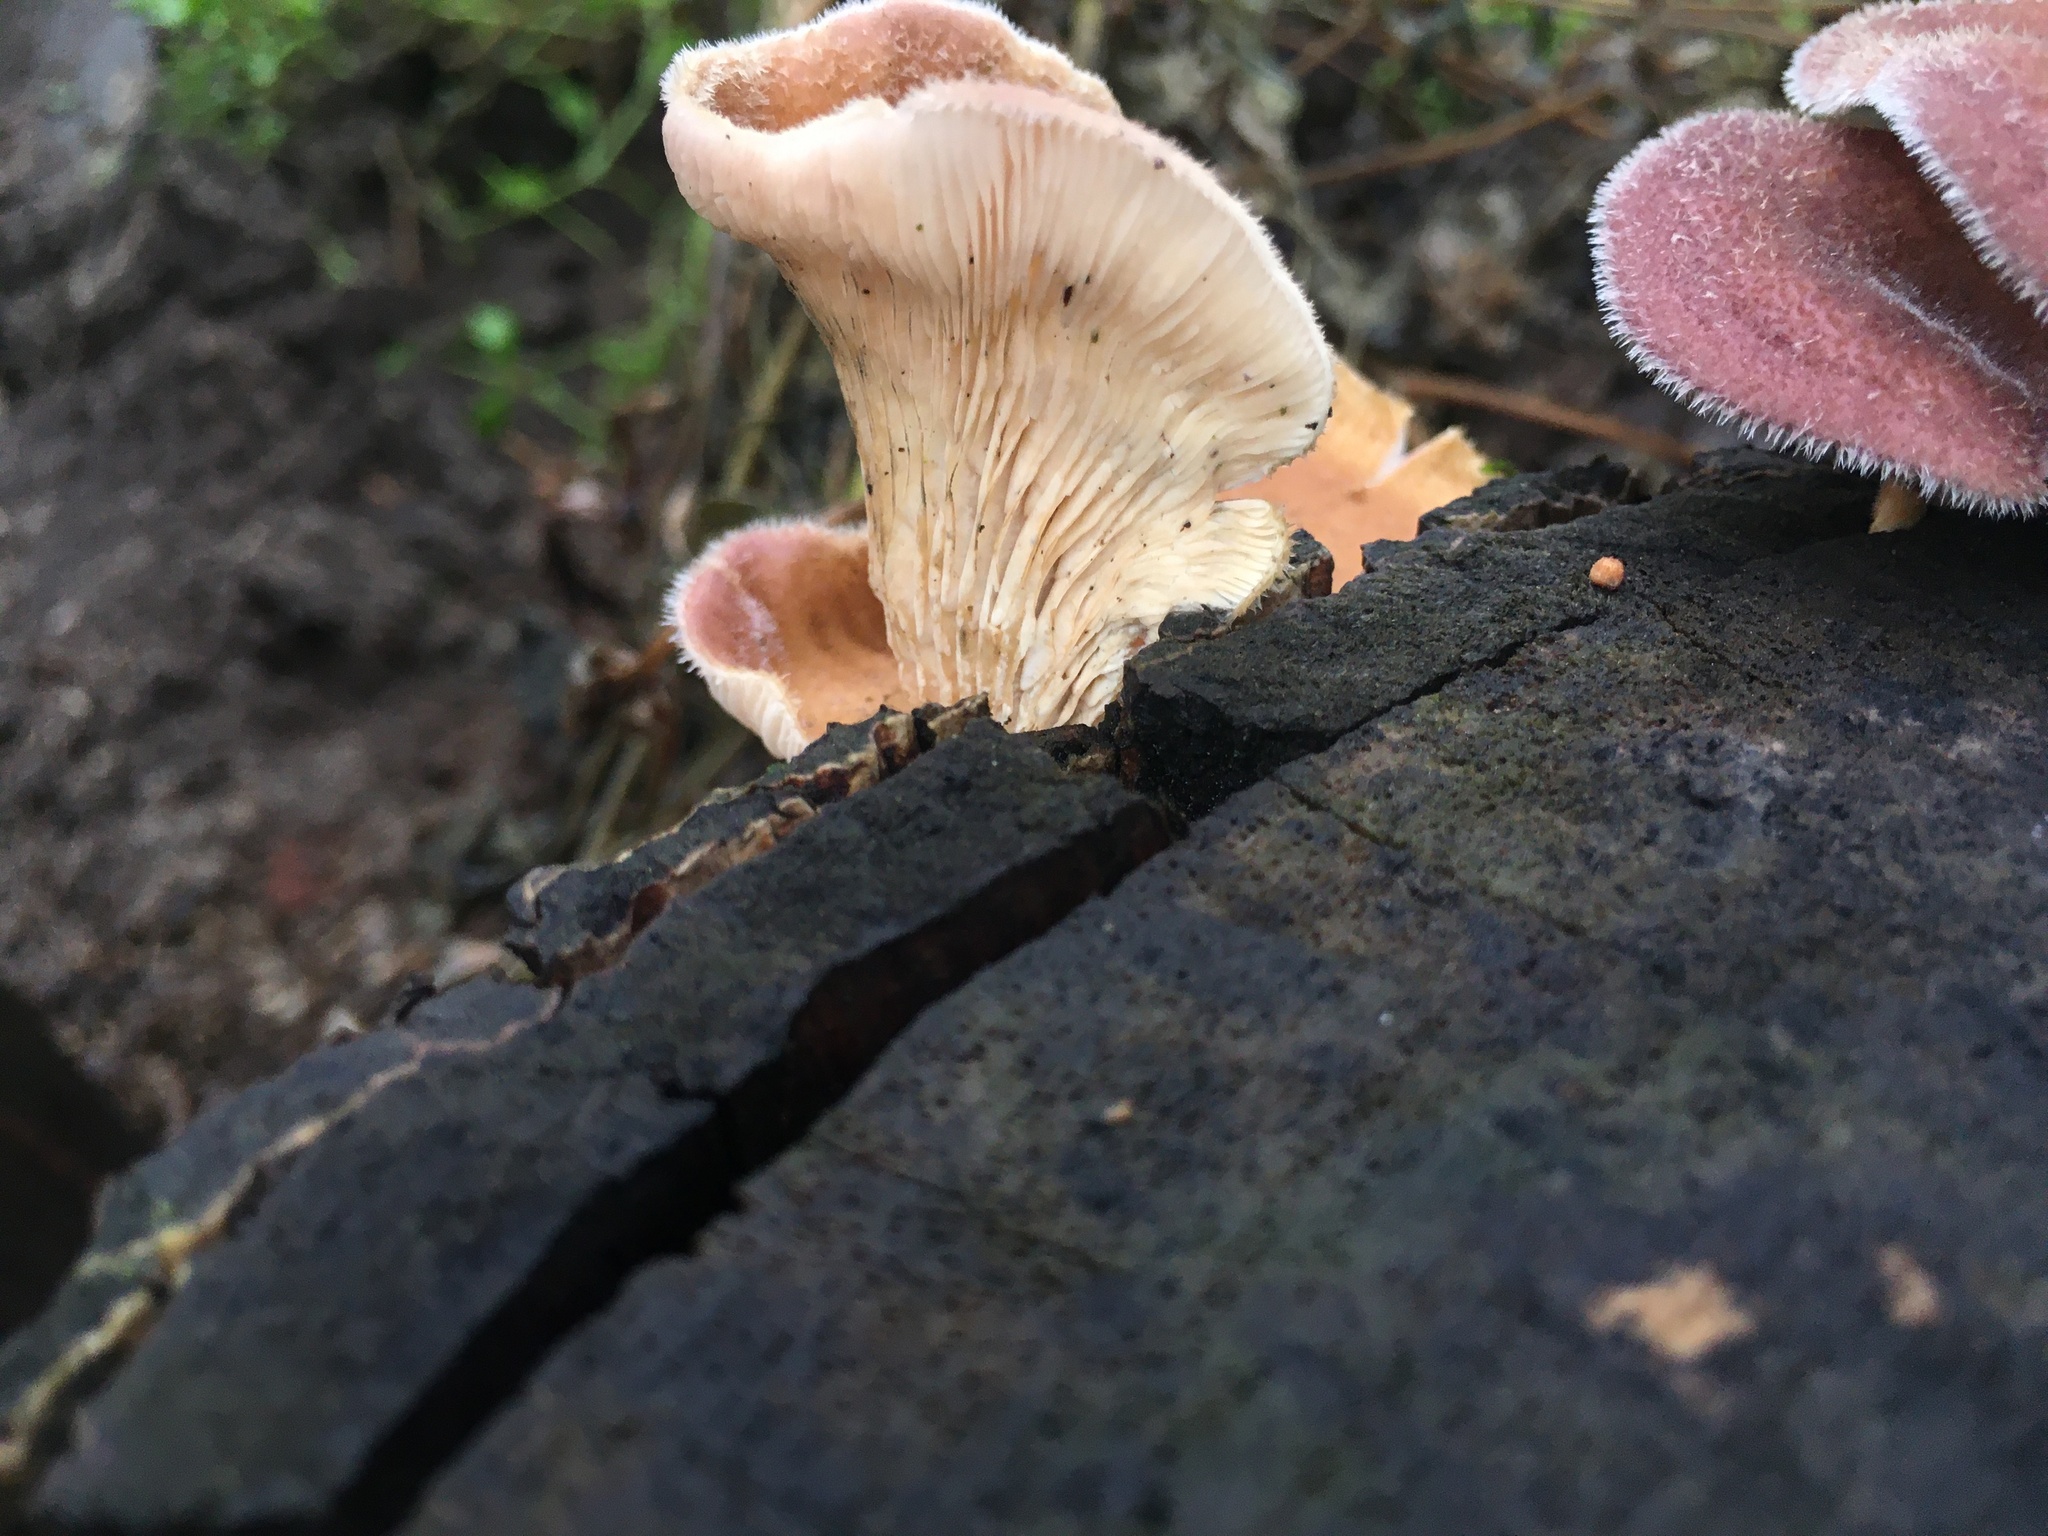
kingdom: Fungi
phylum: Basidiomycota
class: Agaricomycetes
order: Polyporales
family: Panaceae
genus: Panus
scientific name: Panus neostrigosus
